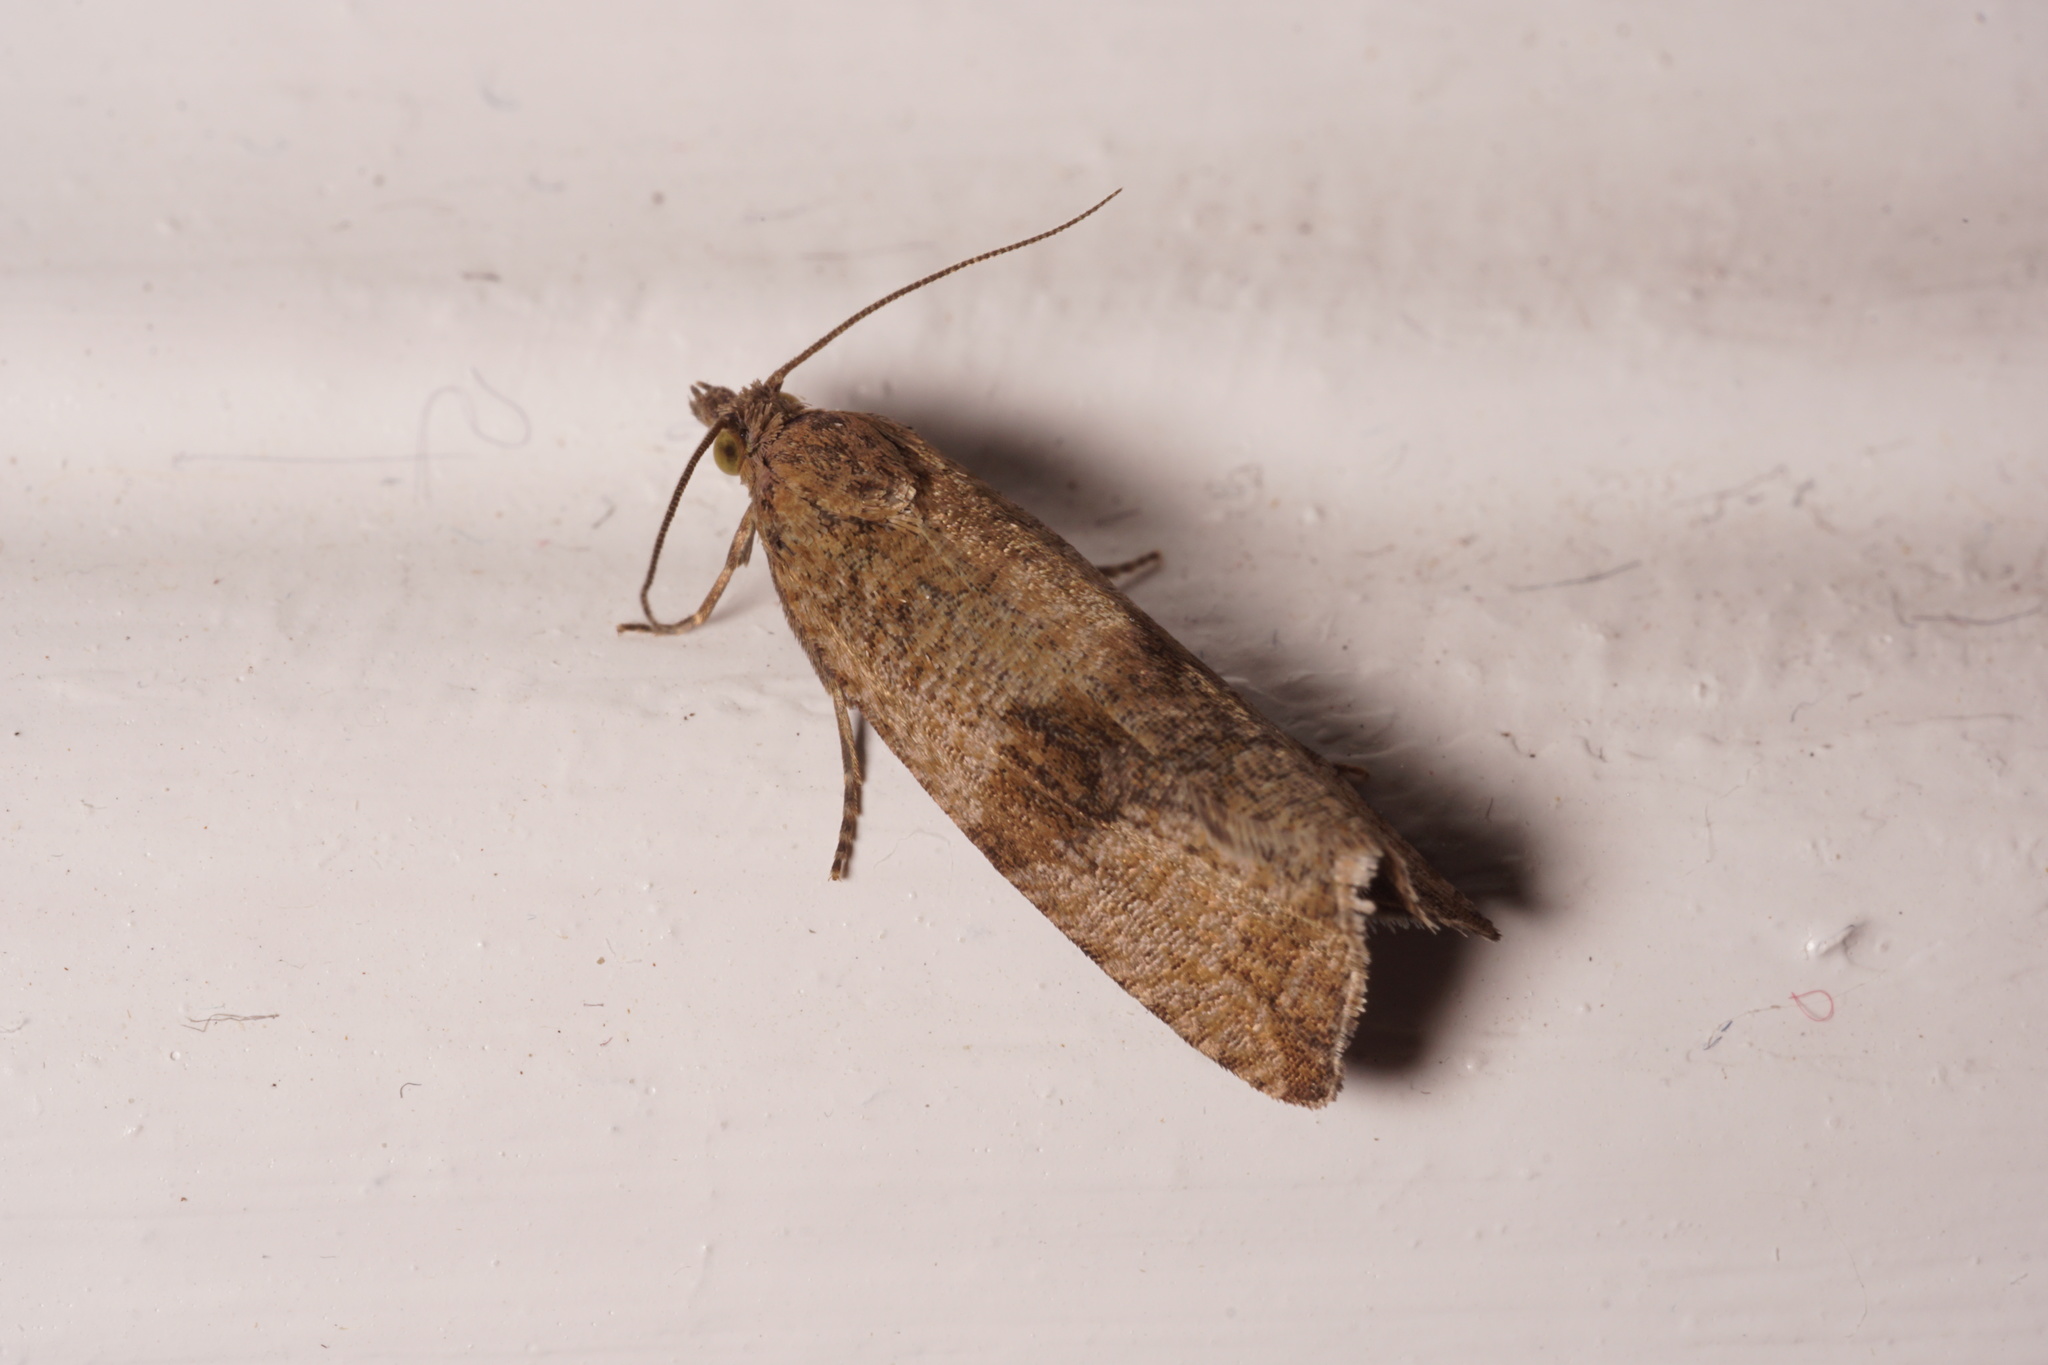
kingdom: Animalia
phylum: Arthropoda
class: Insecta
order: Lepidoptera
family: Tortricidae
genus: Celypha
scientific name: Celypha striana
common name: Barred marble
